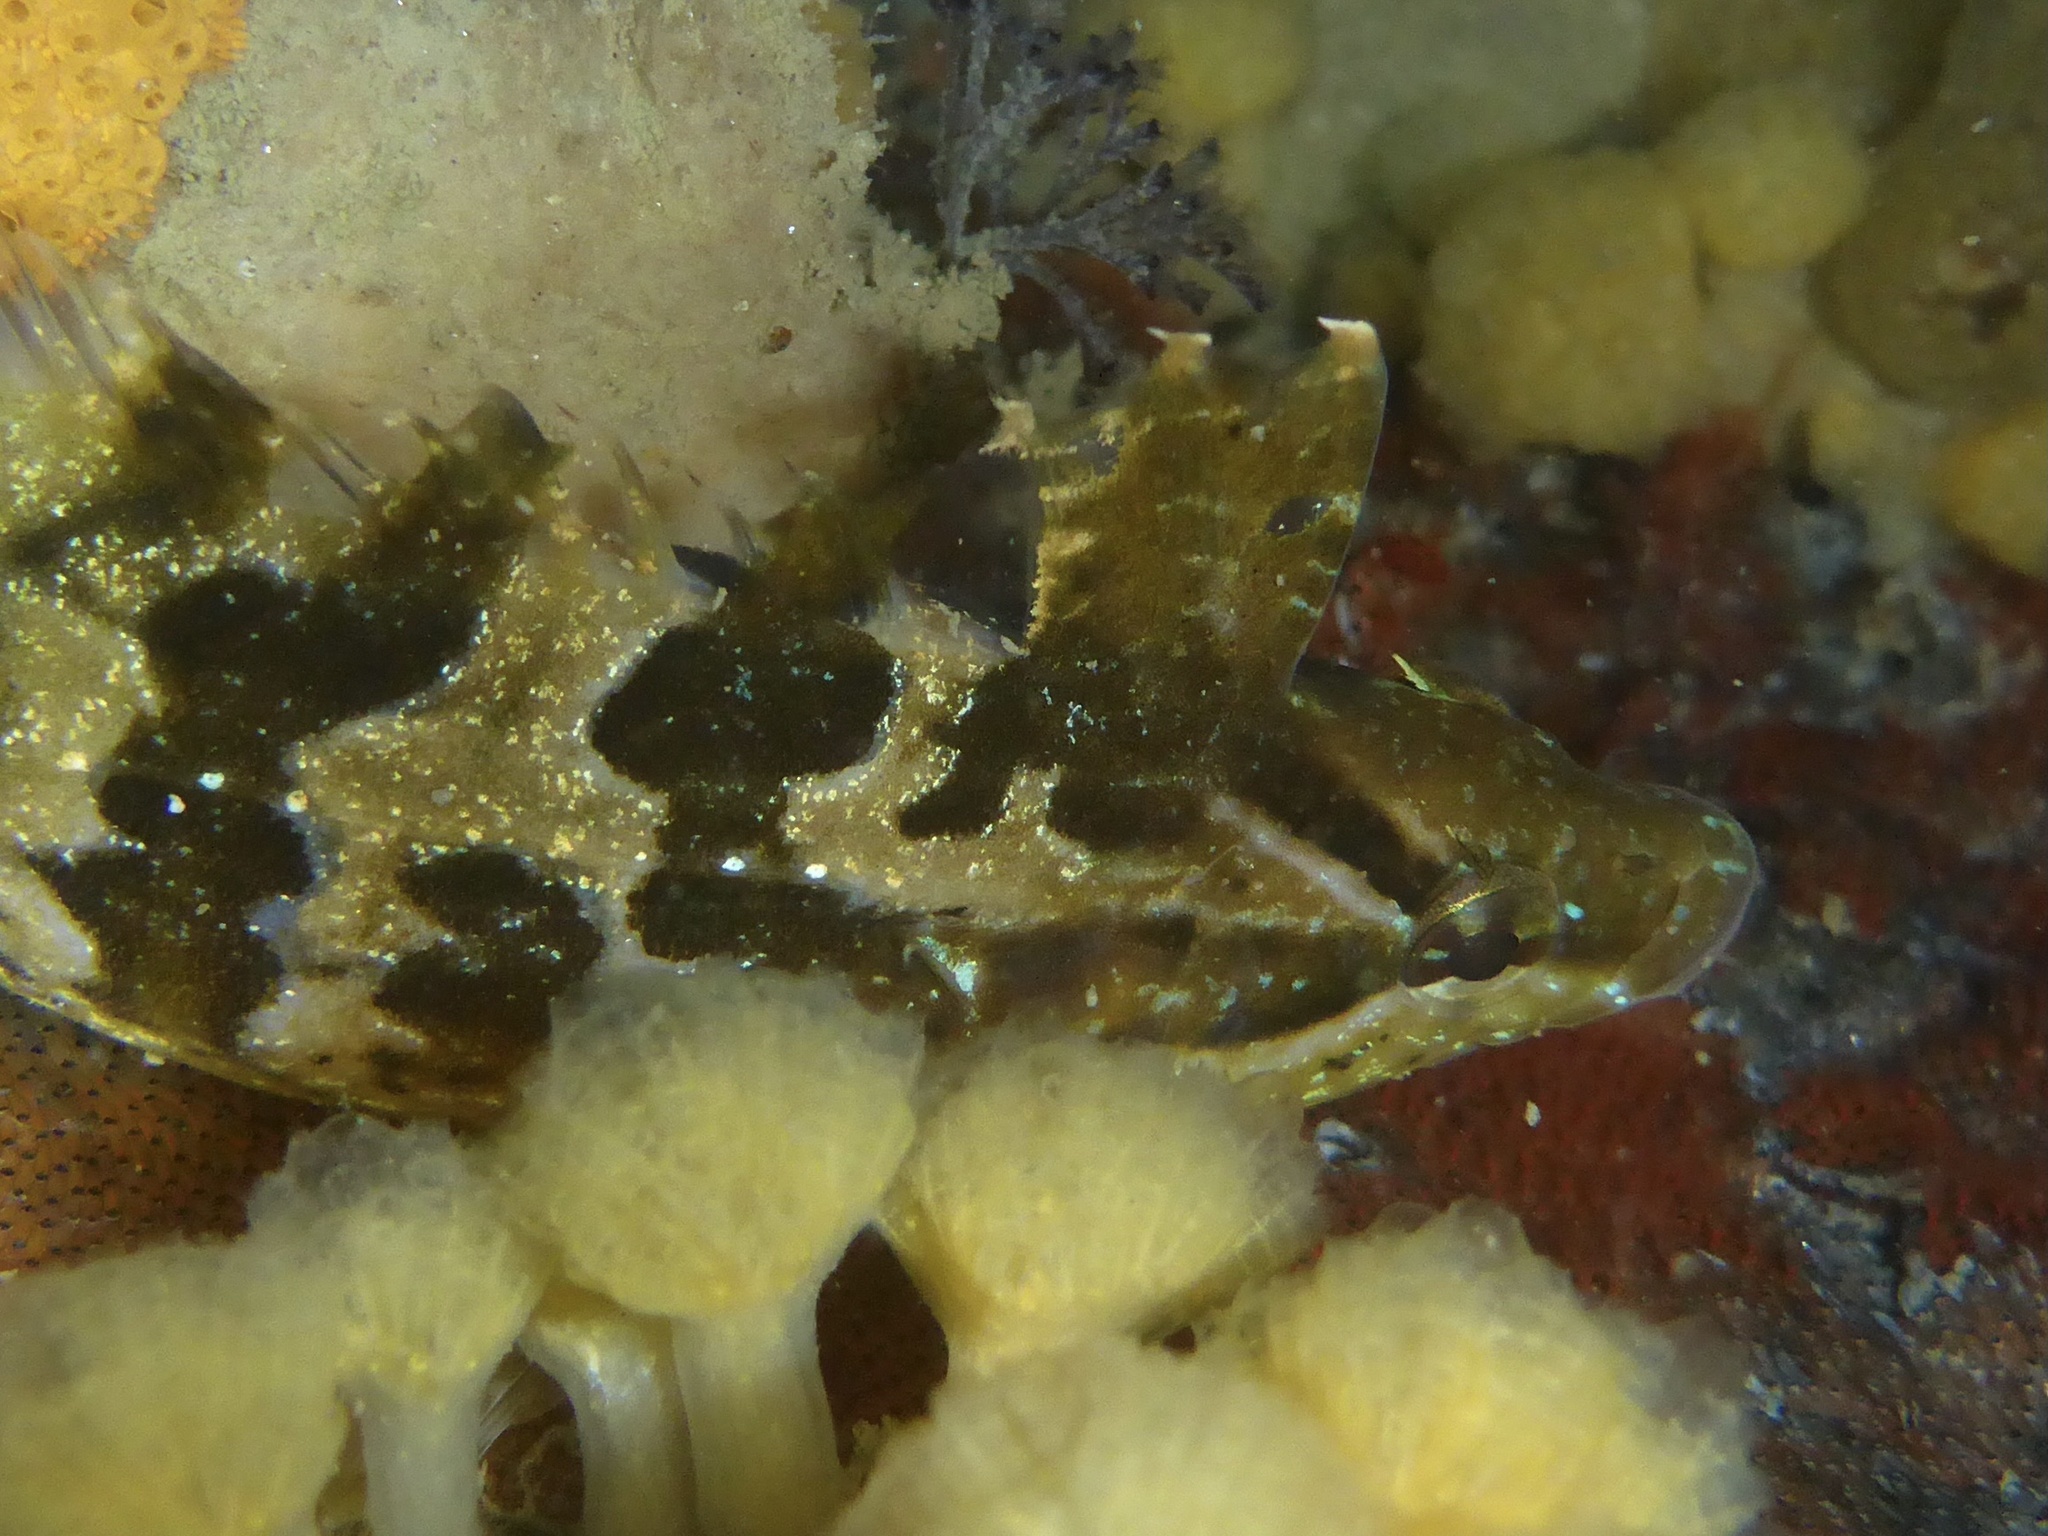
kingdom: Animalia
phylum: Chordata
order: Perciformes
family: Clinidae
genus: Gibbonsia
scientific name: Gibbonsia metzi
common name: Striped kelpfish
